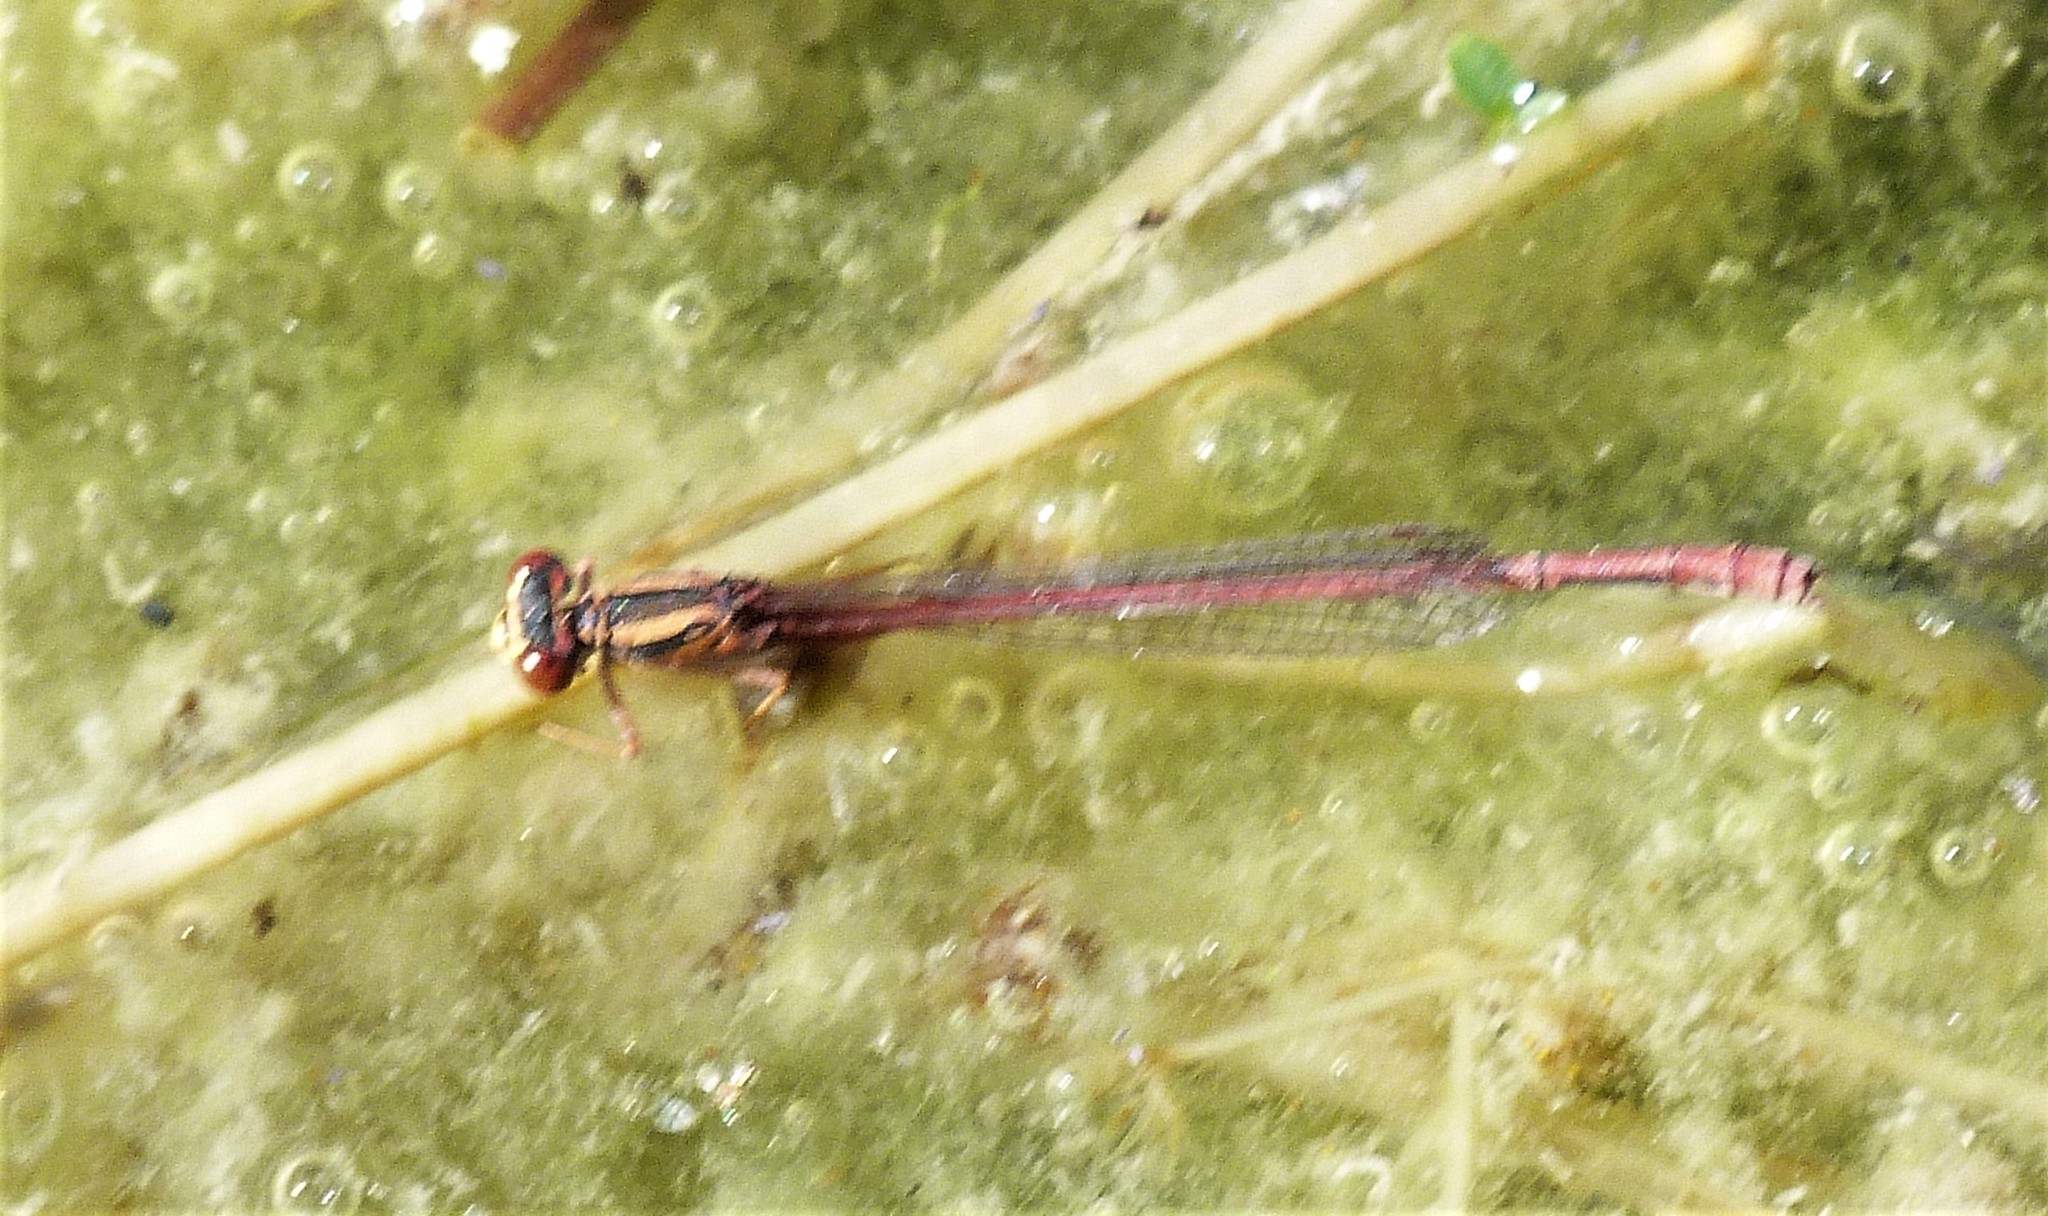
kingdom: Animalia
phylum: Arthropoda
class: Insecta
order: Odonata
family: Coenagrionidae
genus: Xanthocnemis
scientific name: Xanthocnemis zealandica
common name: Common redcoat damselfly
